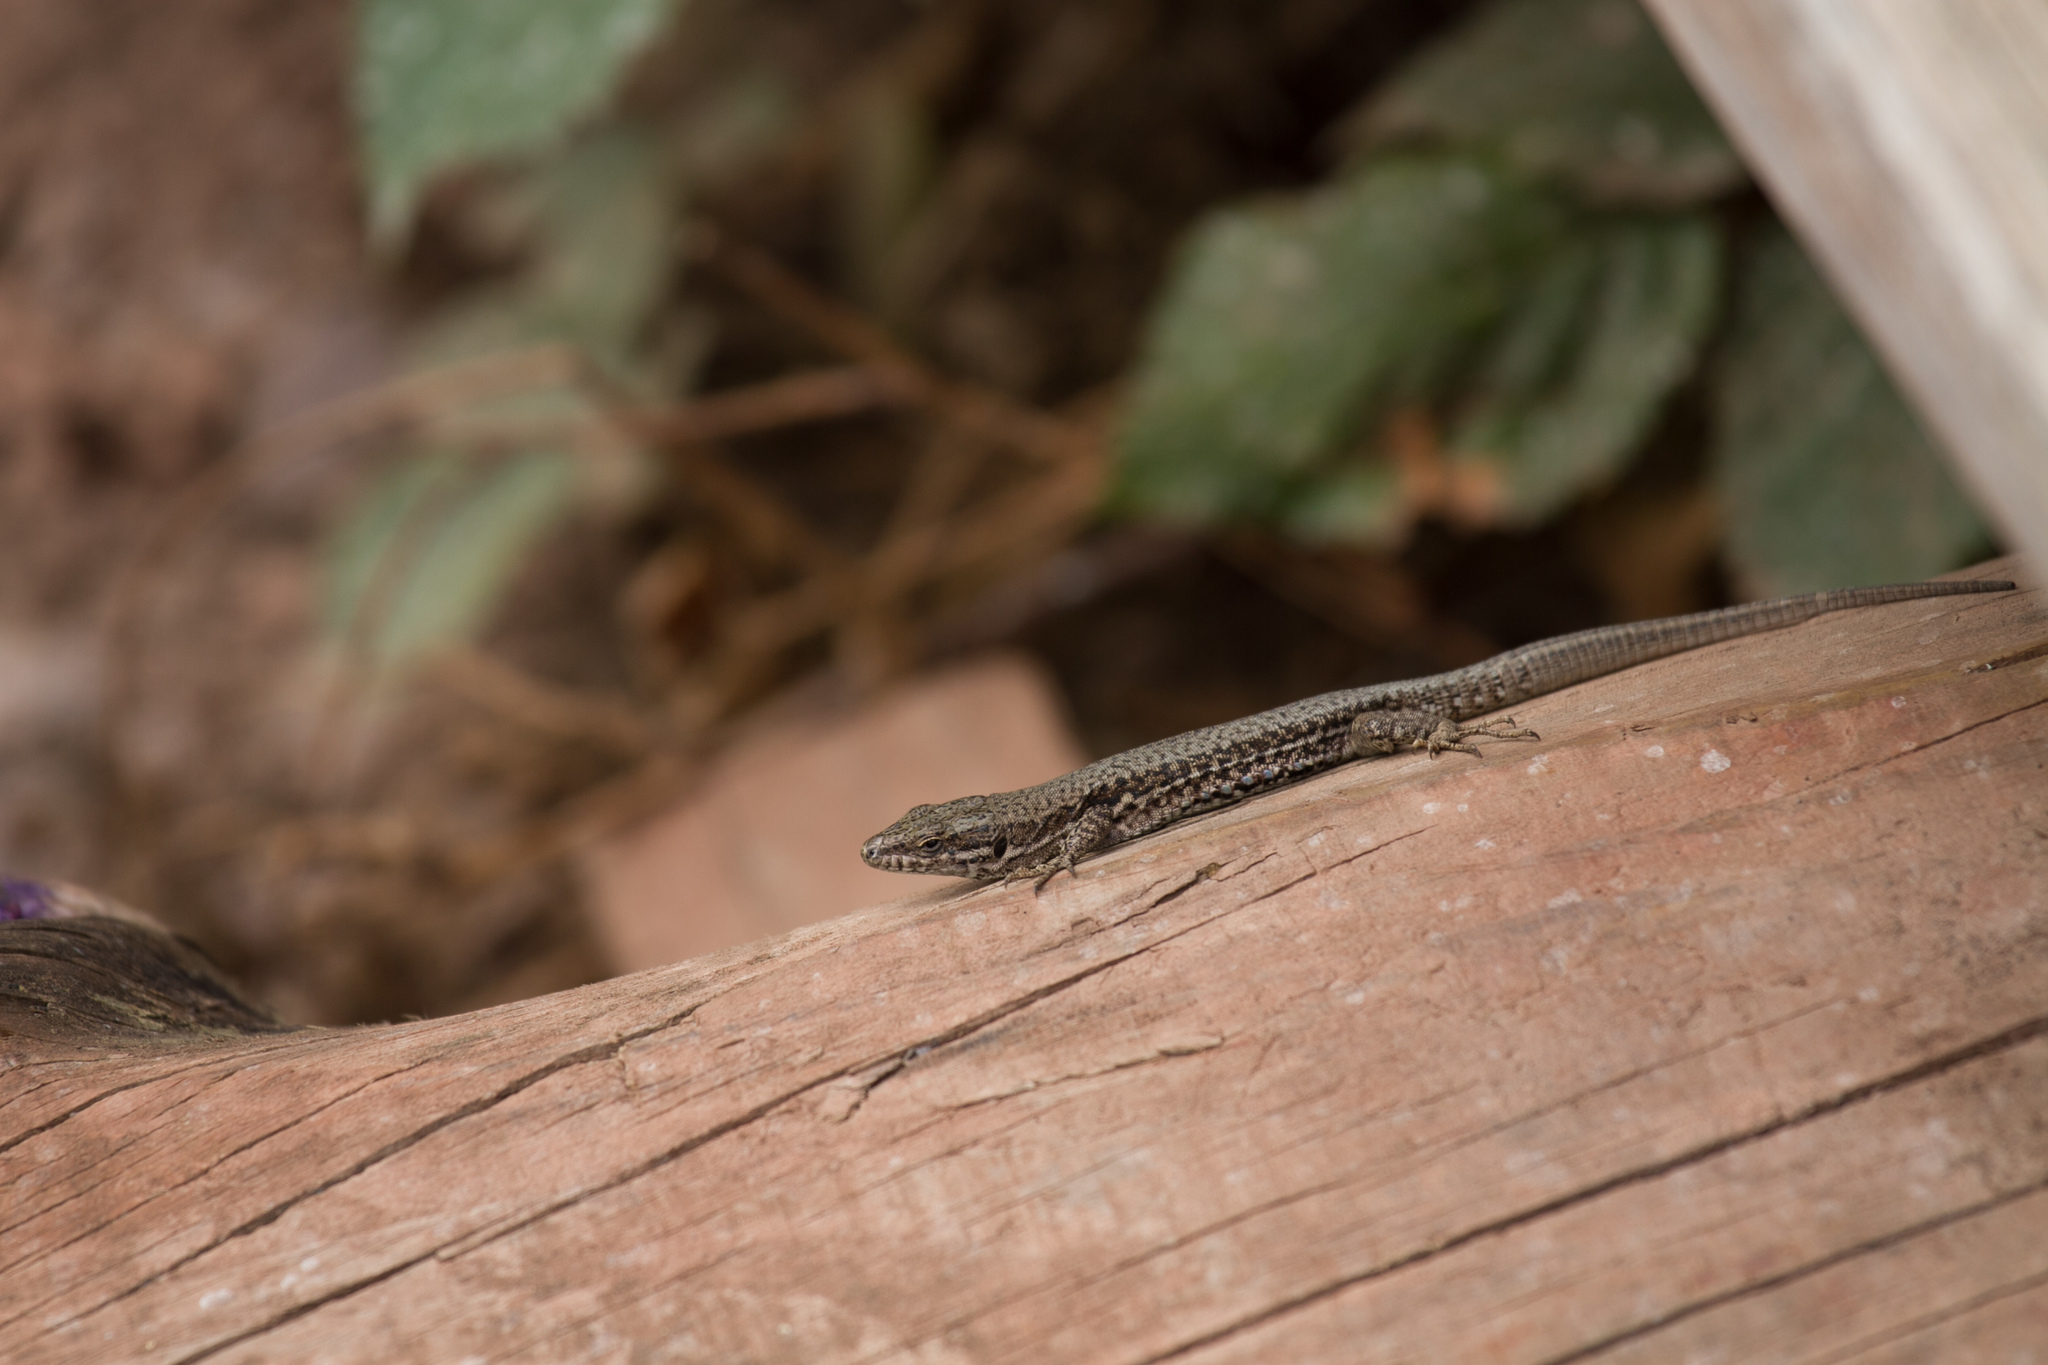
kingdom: Animalia
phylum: Chordata
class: Squamata
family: Lacertidae
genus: Podarcis
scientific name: Podarcis muralis
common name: Common wall lizard
